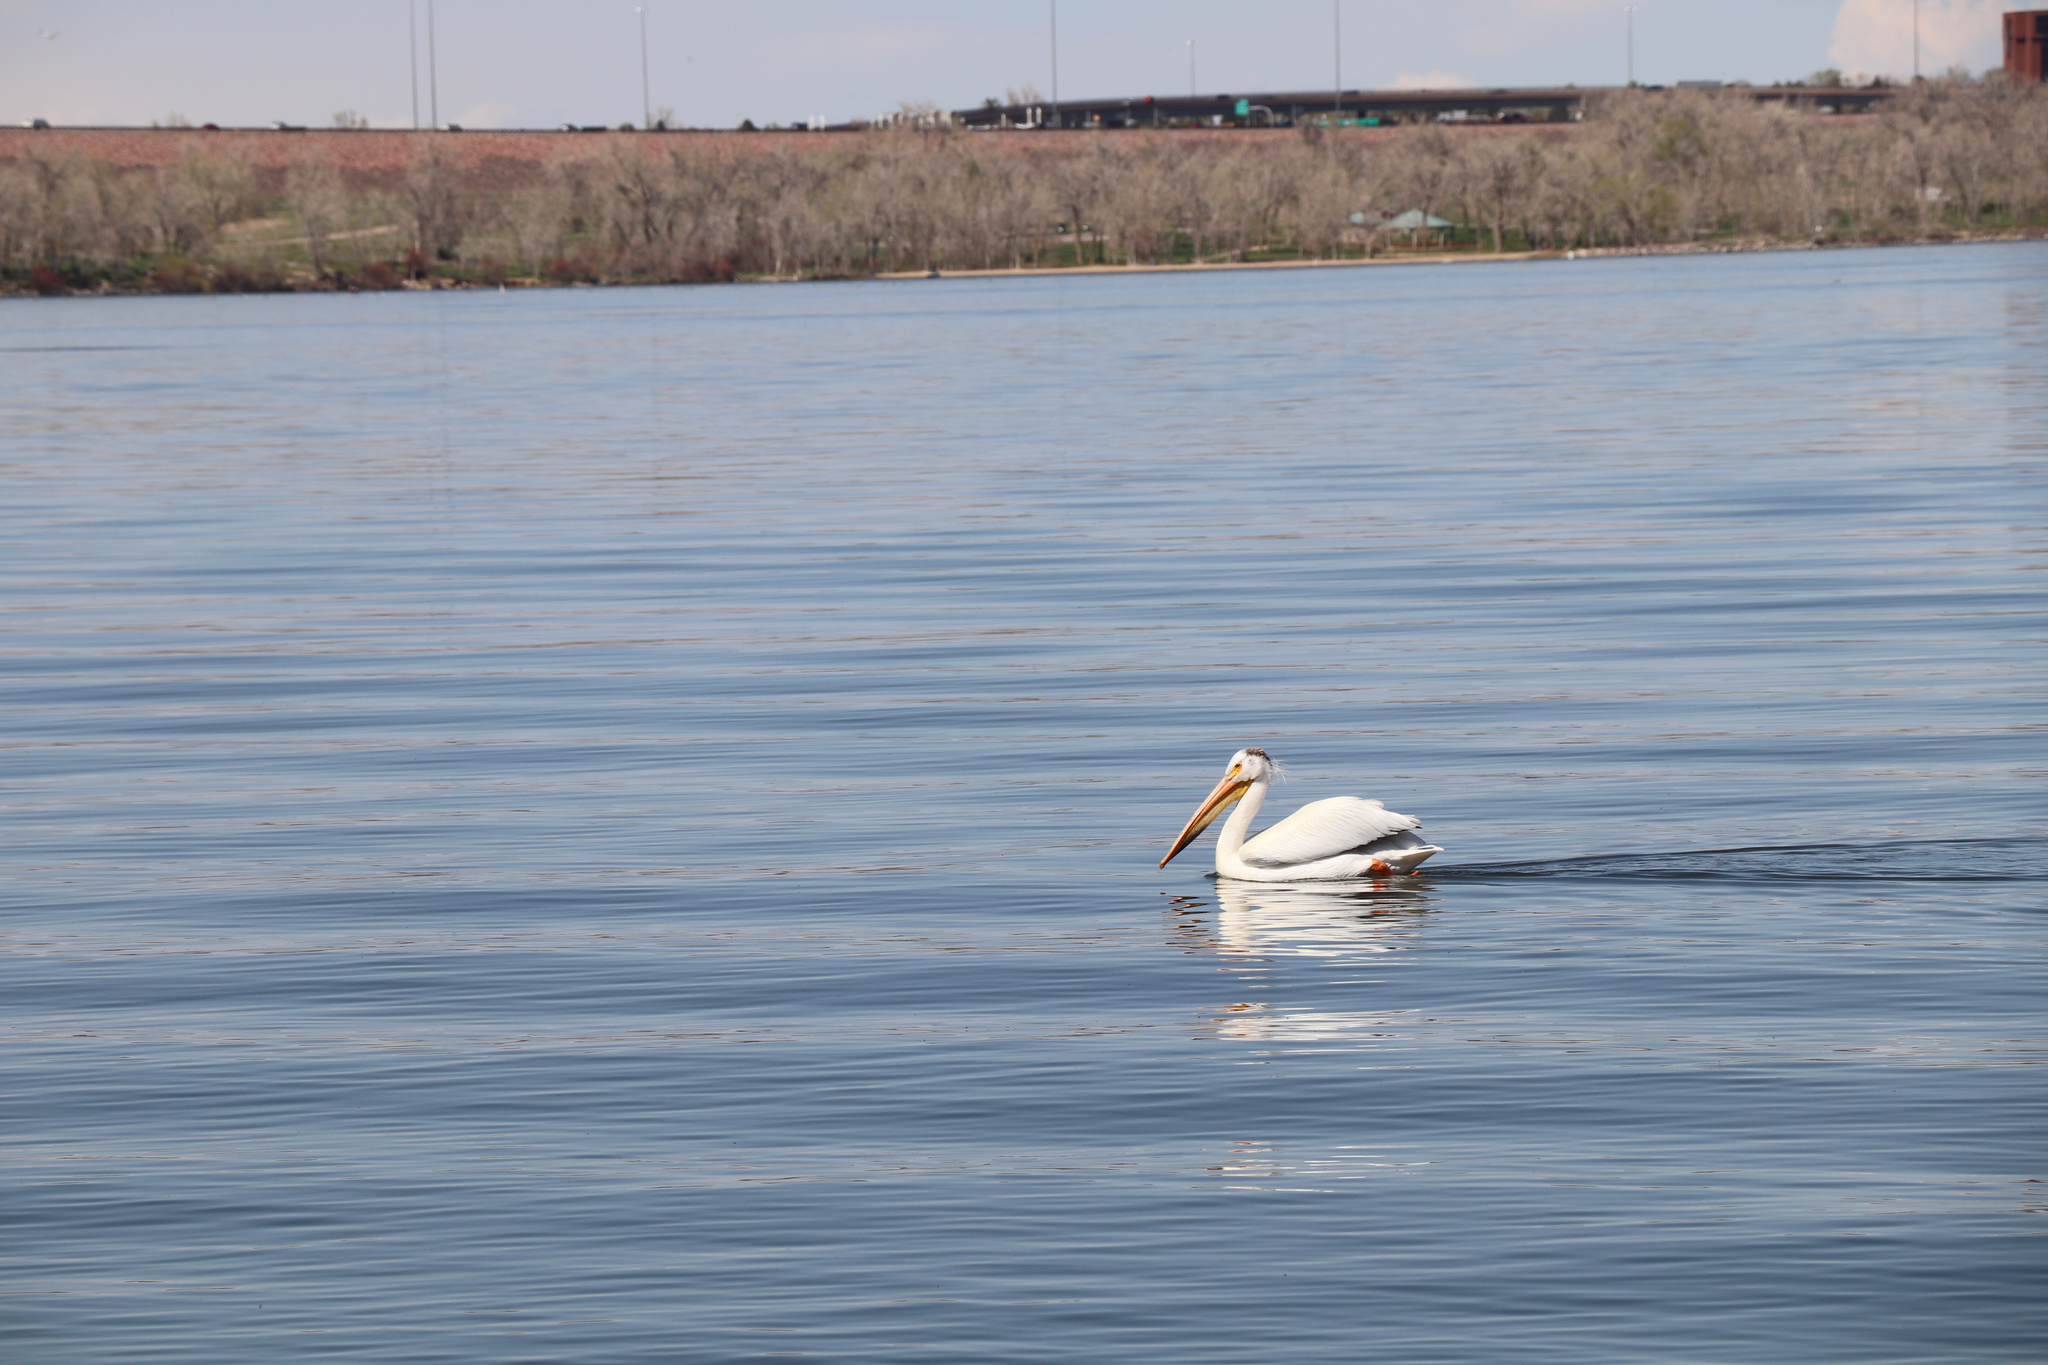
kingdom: Animalia
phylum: Chordata
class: Aves
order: Pelecaniformes
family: Pelecanidae
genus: Pelecanus
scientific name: Pelecanus erythrorhynchos
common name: American white pelican
